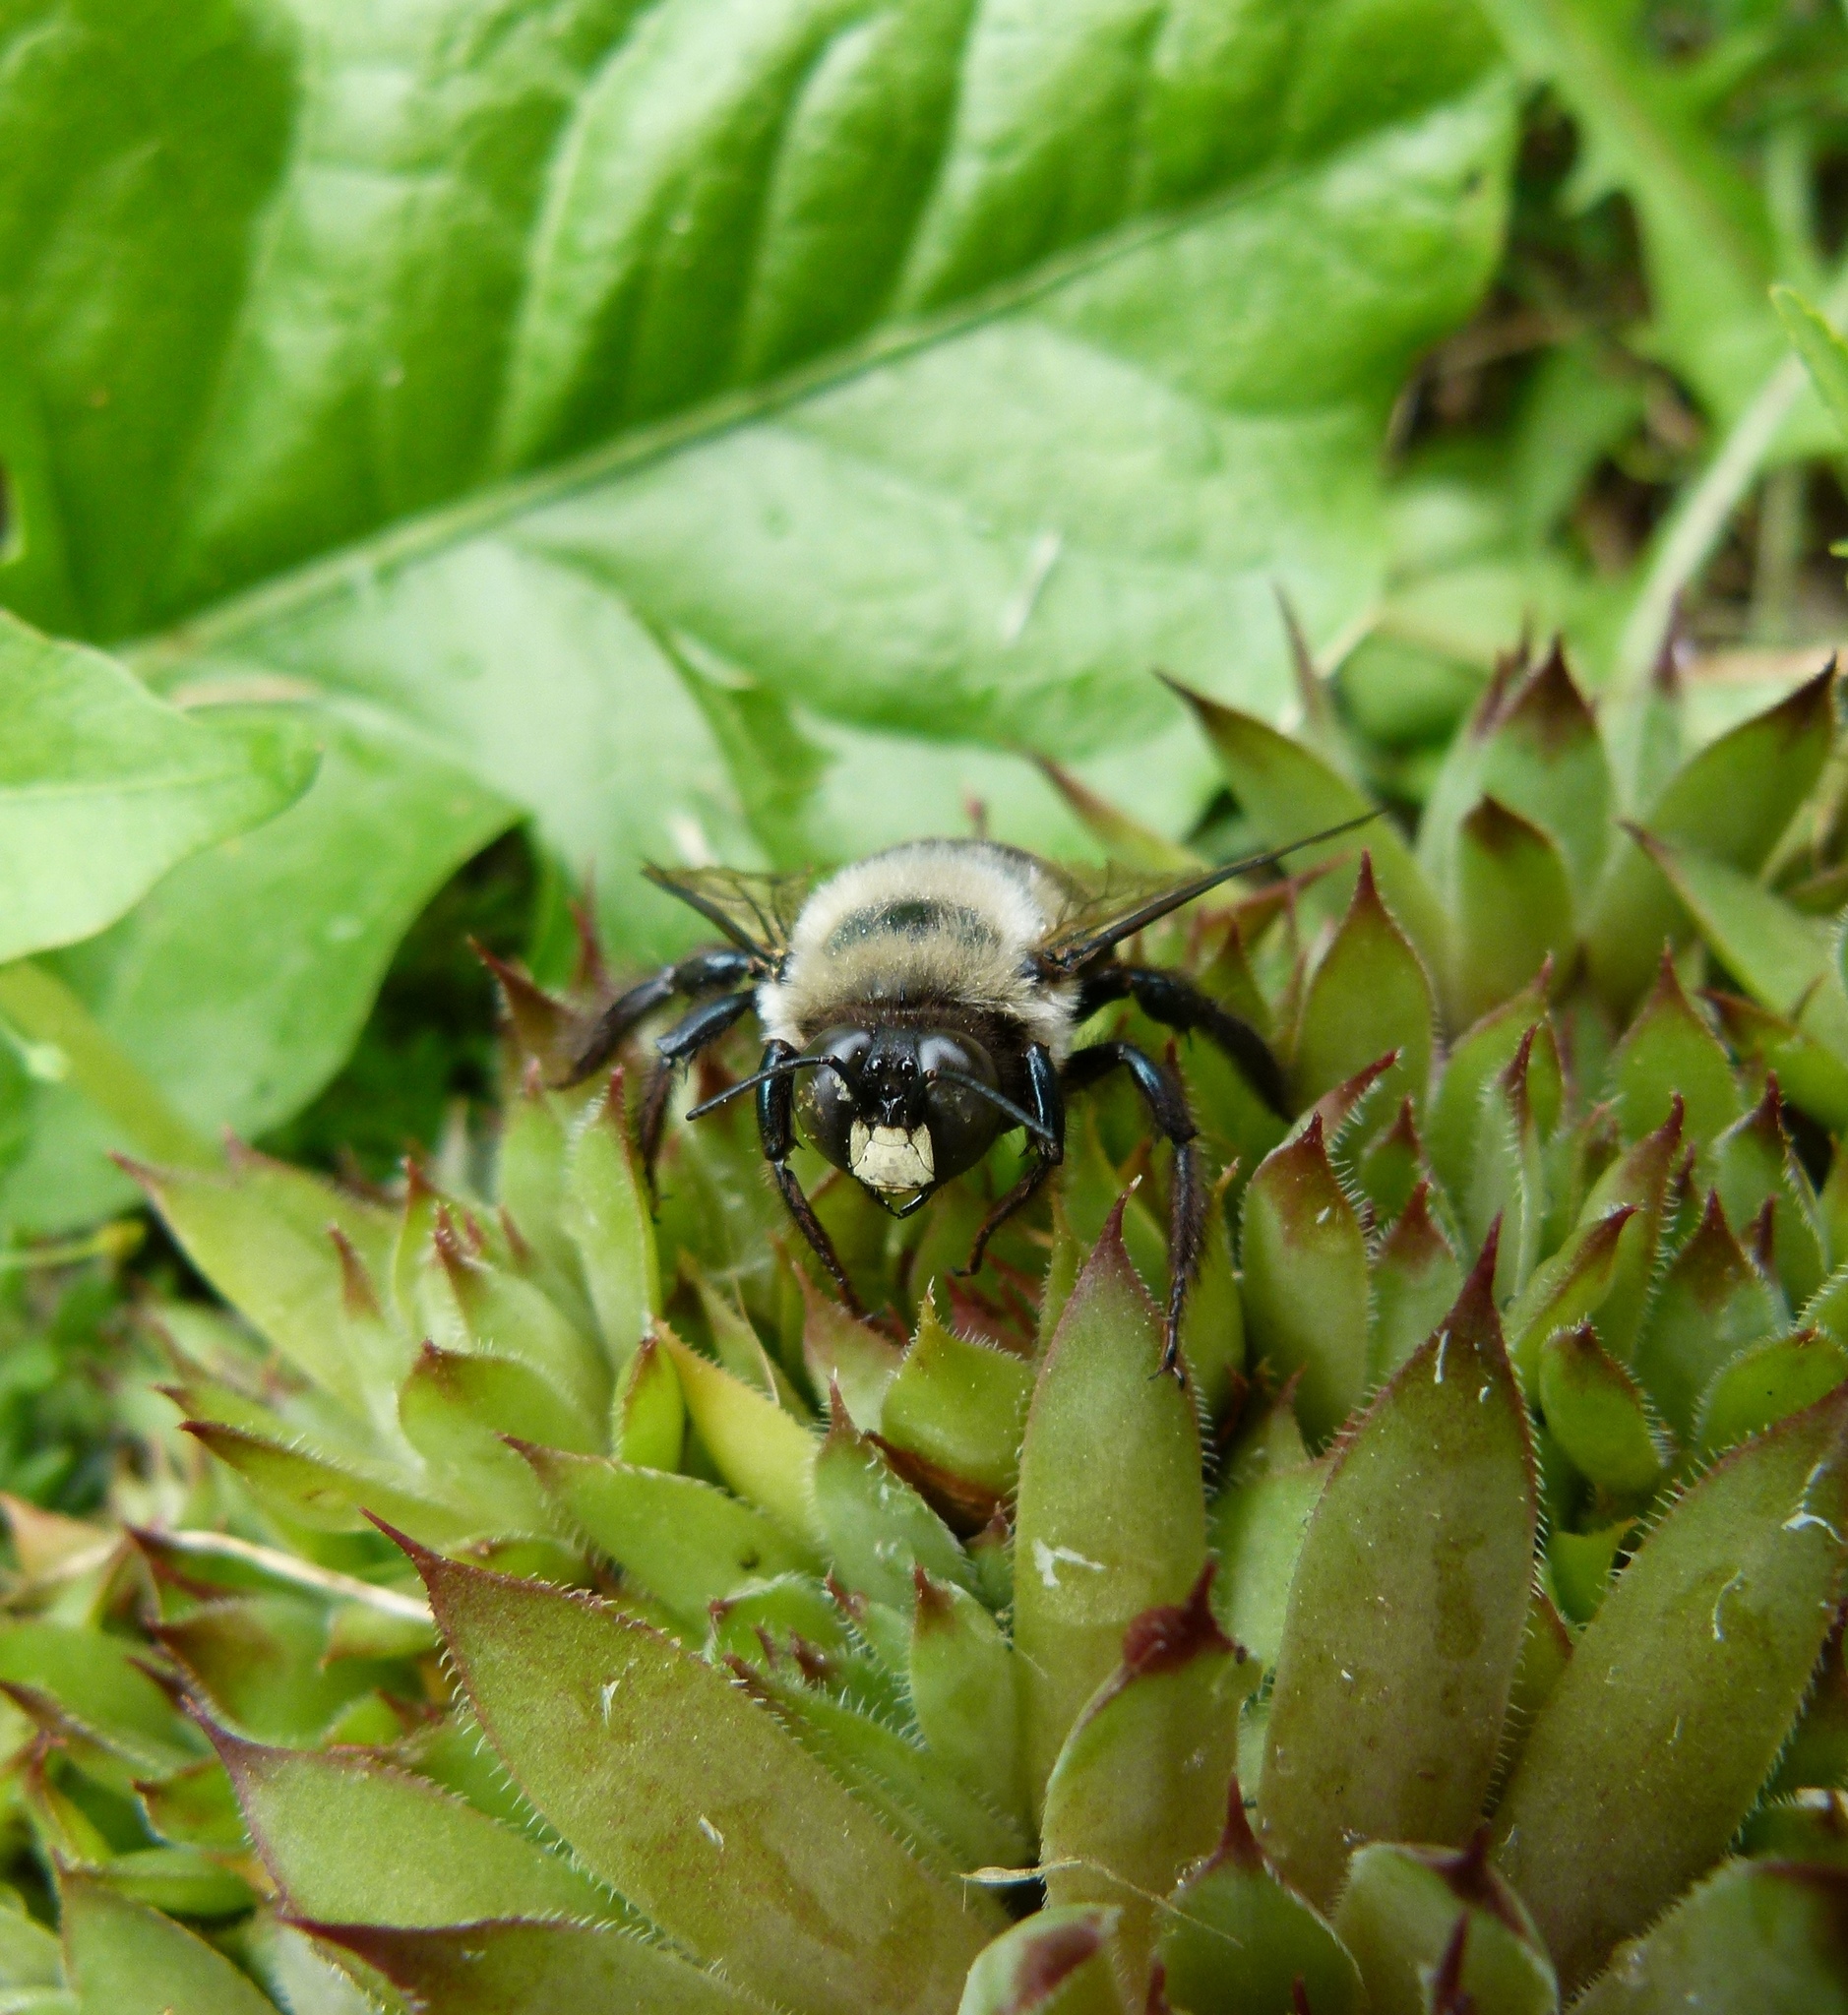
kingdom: Animalia
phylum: Arthropoda
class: Insecta
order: Hymenoptera
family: Apidae
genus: Xylocopa
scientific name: Xylocopa virginica
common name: Carpenter bee
